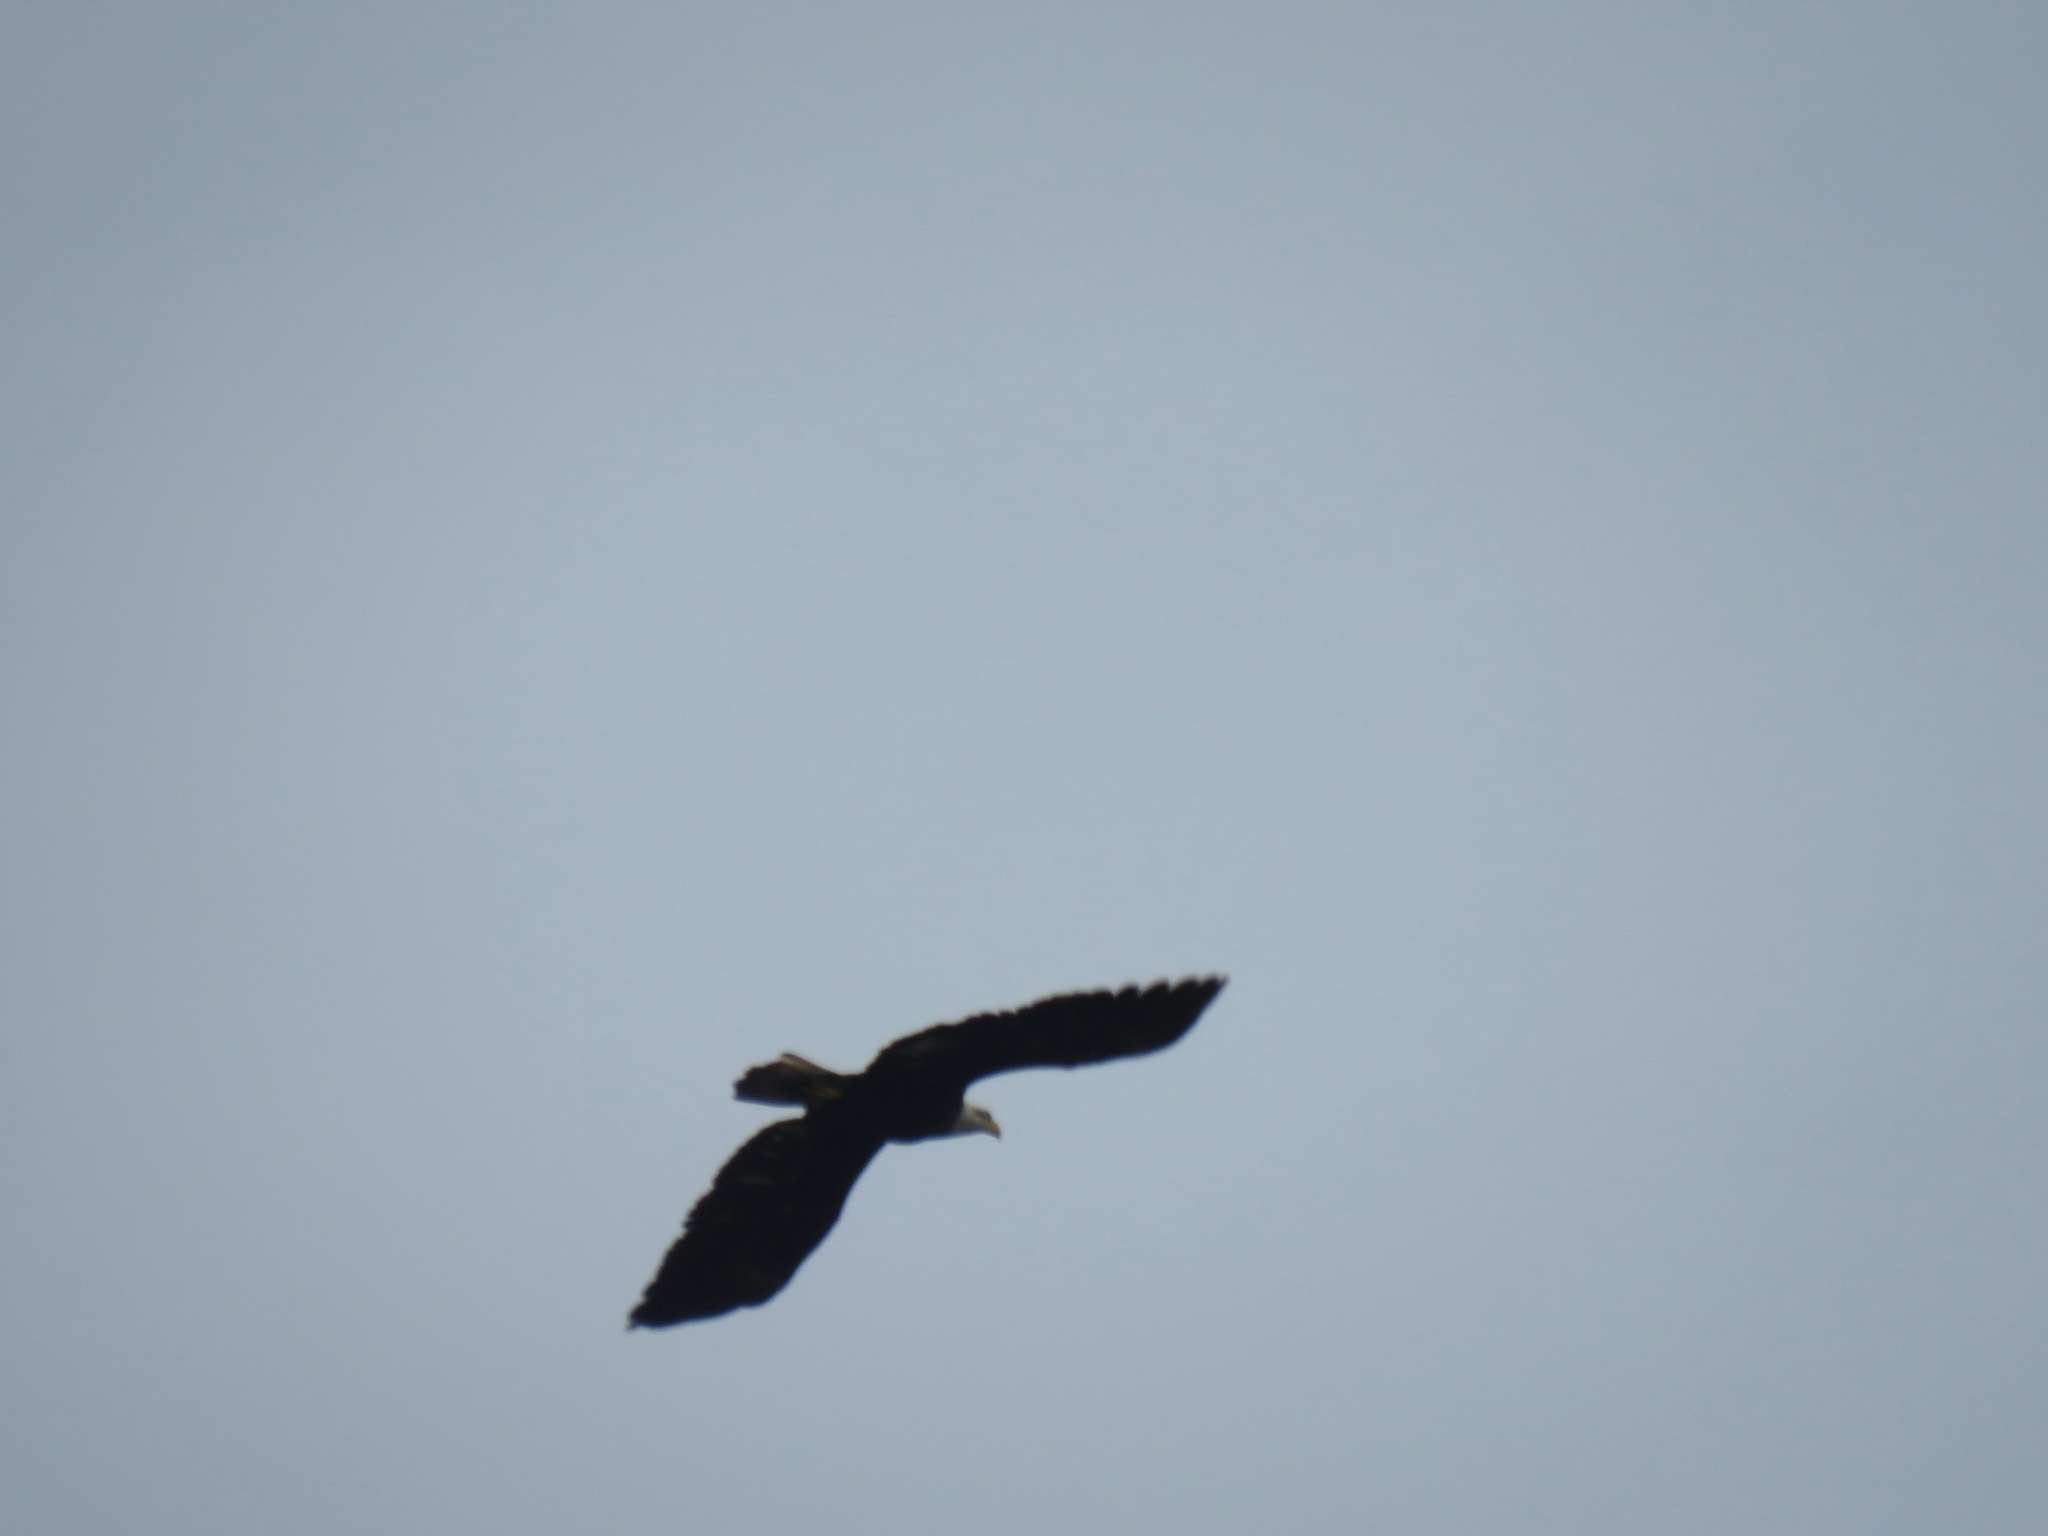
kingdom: Animalia
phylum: Chordata
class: Aves
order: Accipitriformes
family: Accipitridae
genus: Haliaeetus
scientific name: Haliaeetus leucocephalus
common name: Bald eagle
